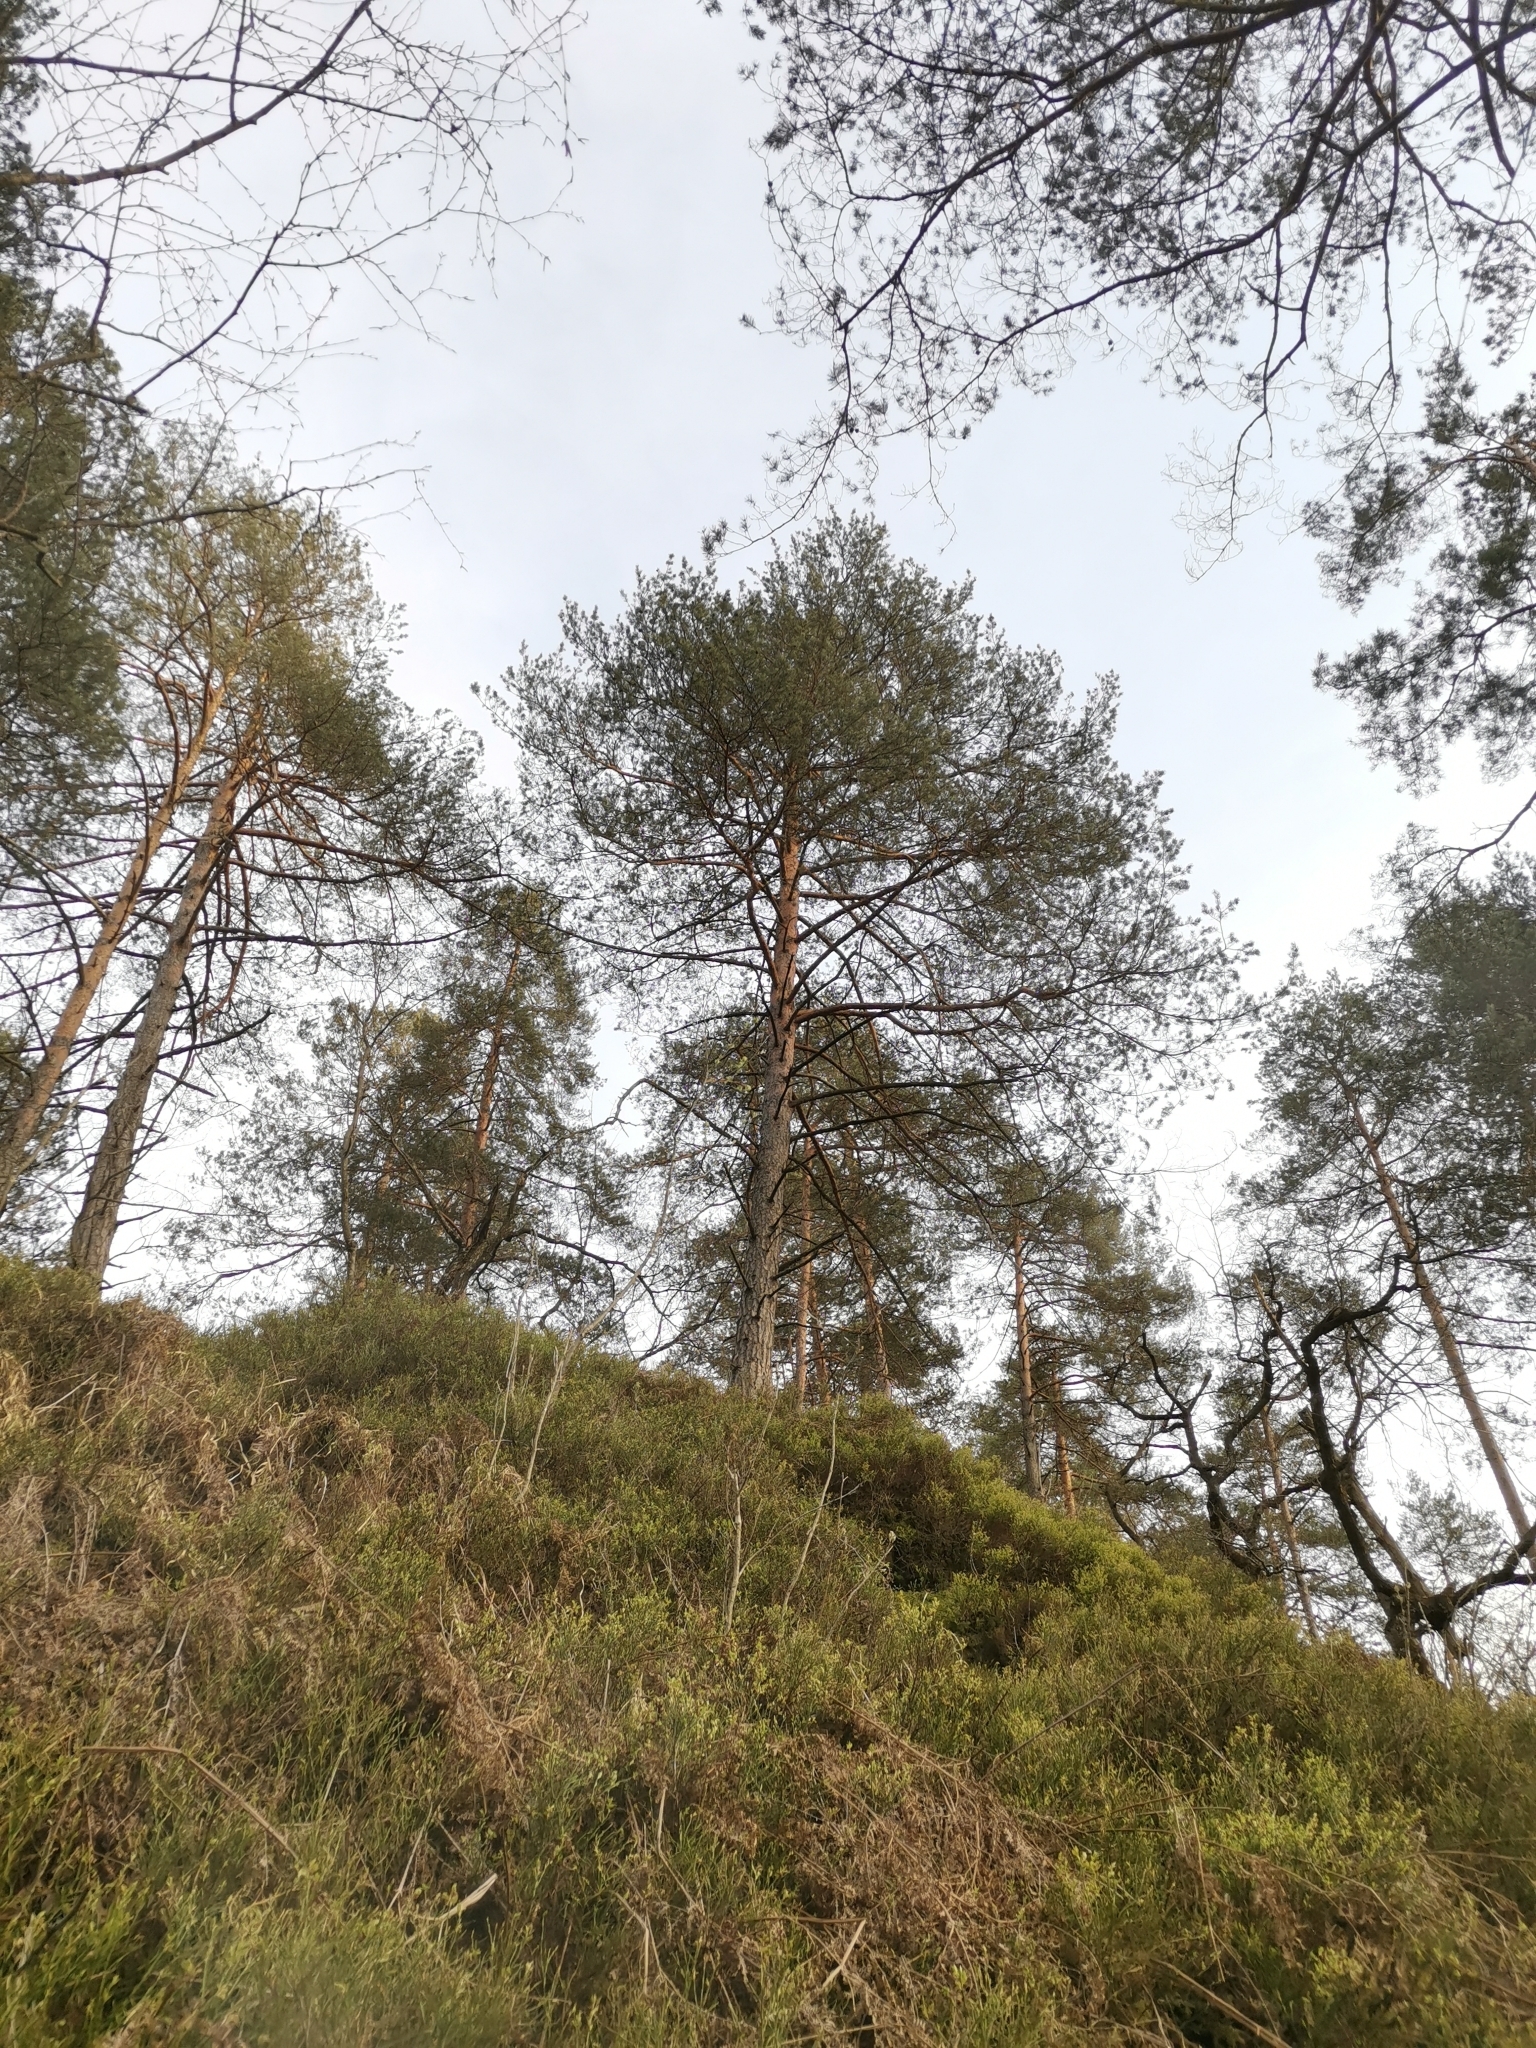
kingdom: Plantae
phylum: Tracheophyta
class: Pinopsida
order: Pinales
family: Pinaceae
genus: Pinus
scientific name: Pinus sylvestris
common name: Scots pine
